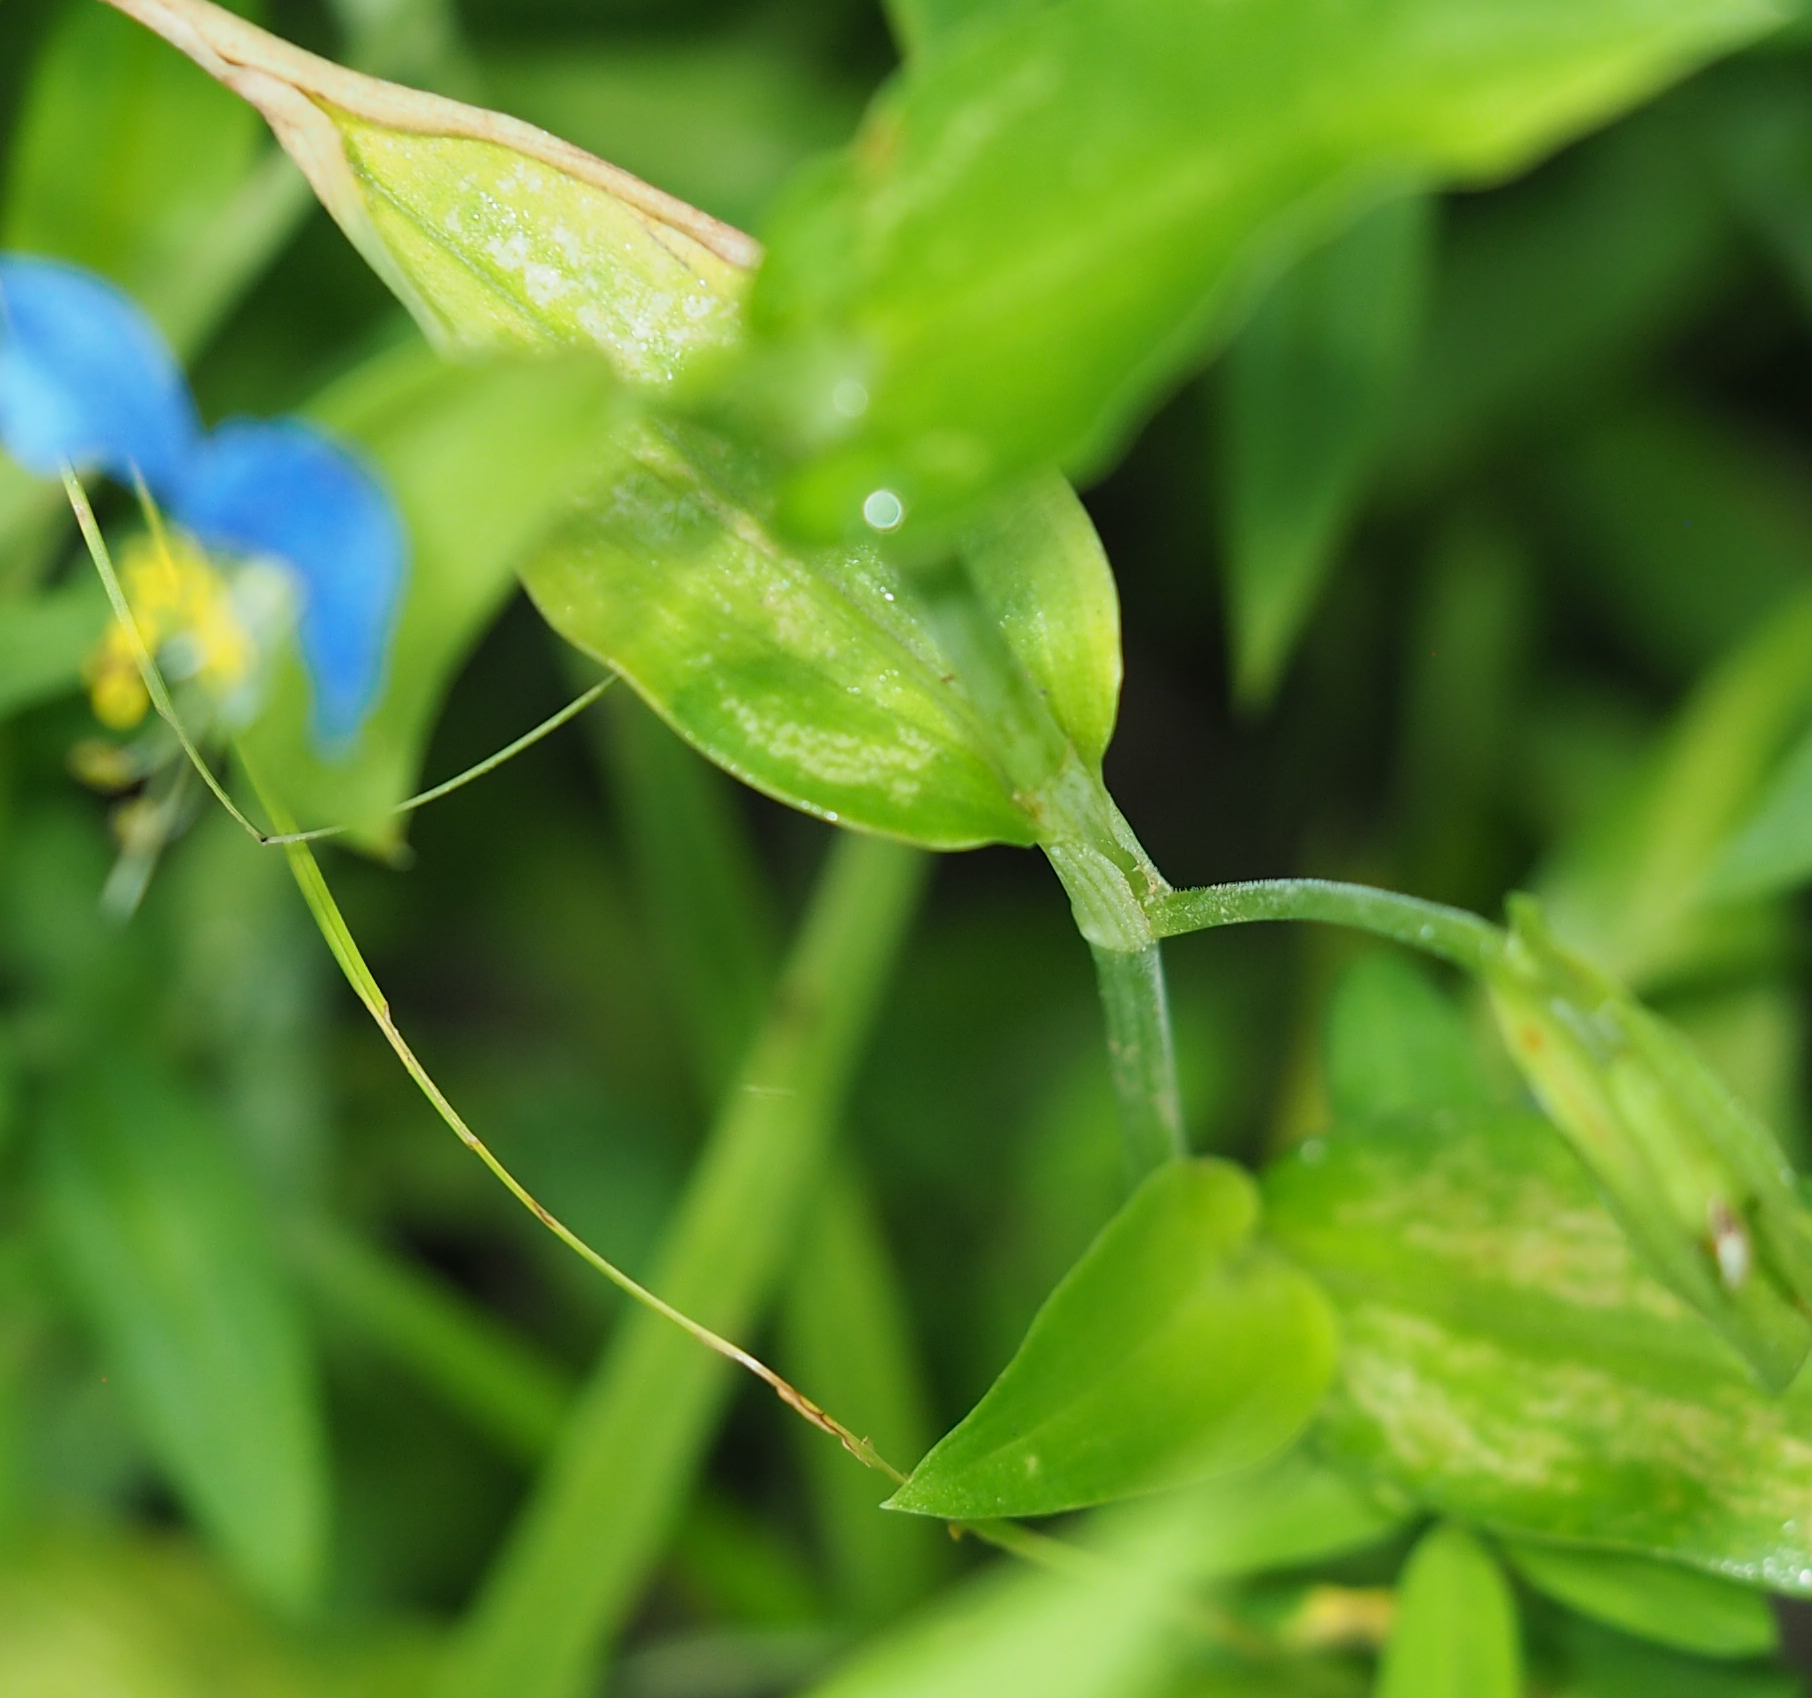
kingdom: Plantae
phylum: Tracheophyta
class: Liliopsida
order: Commelinales
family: Commelinaceae
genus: Commelina
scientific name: Commelina communis
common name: Asiatic dayflower
